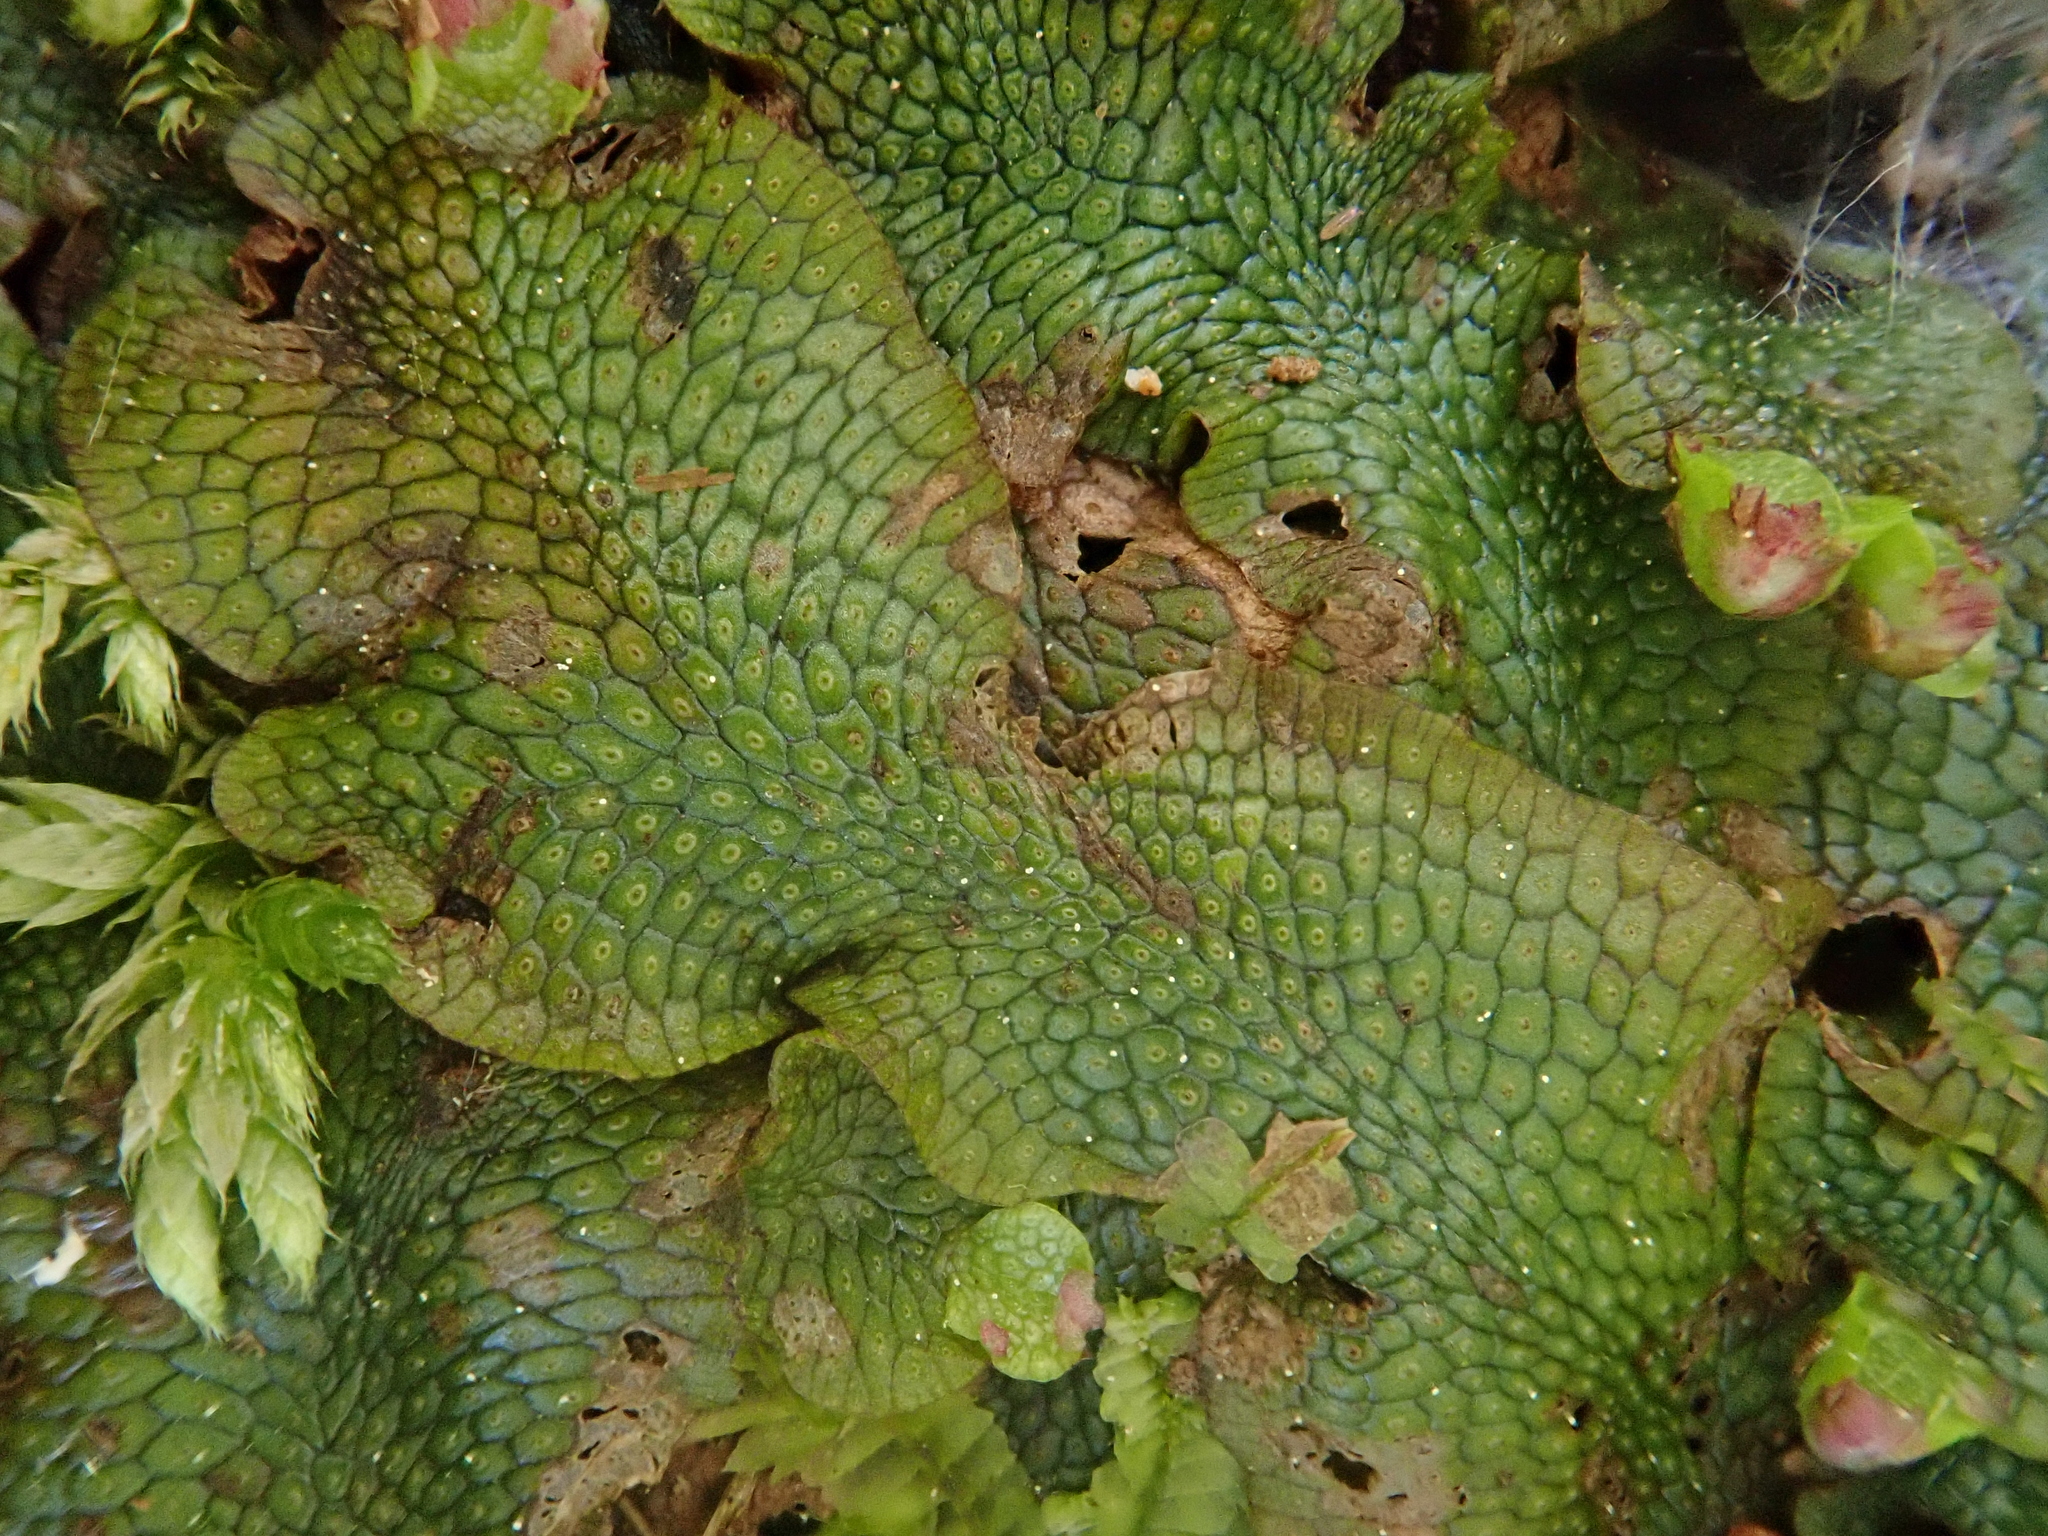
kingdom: Plantae
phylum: Marchantiophyta
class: Marchantiopsida
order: Marchantiales
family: Conocephalaceae
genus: Conocephalum
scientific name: Conocephalum salebrosum
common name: Cat-tongue liverwort
